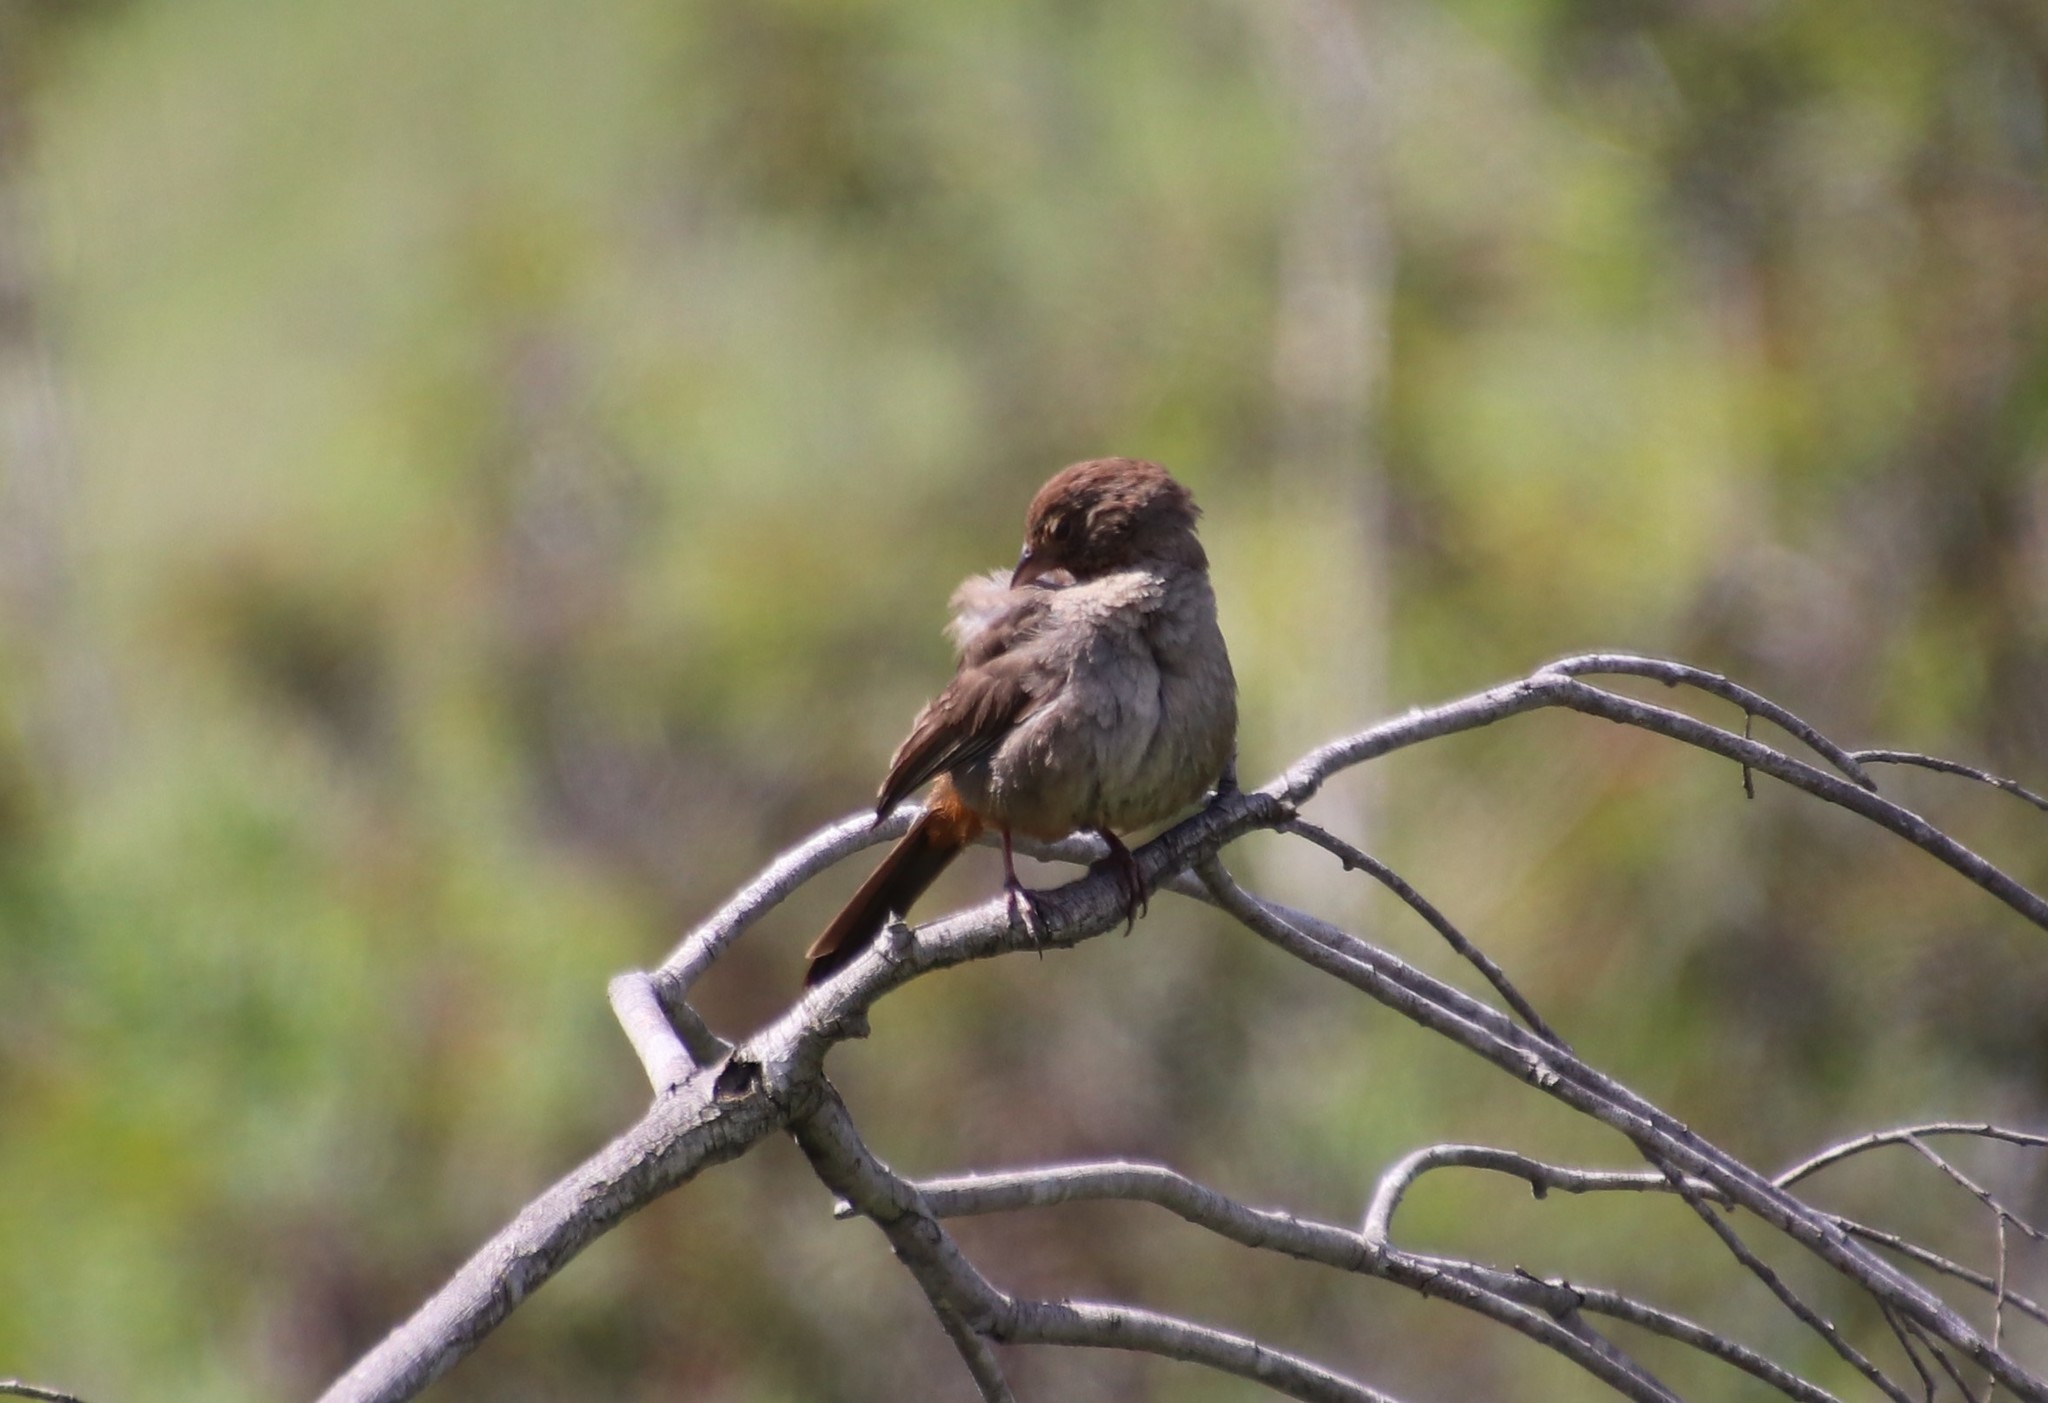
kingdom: Animalia
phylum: Chordata
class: Aves
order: Passeriformes
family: Passerellidae
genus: Melozone
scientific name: Melozone crissalis
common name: California towhee
